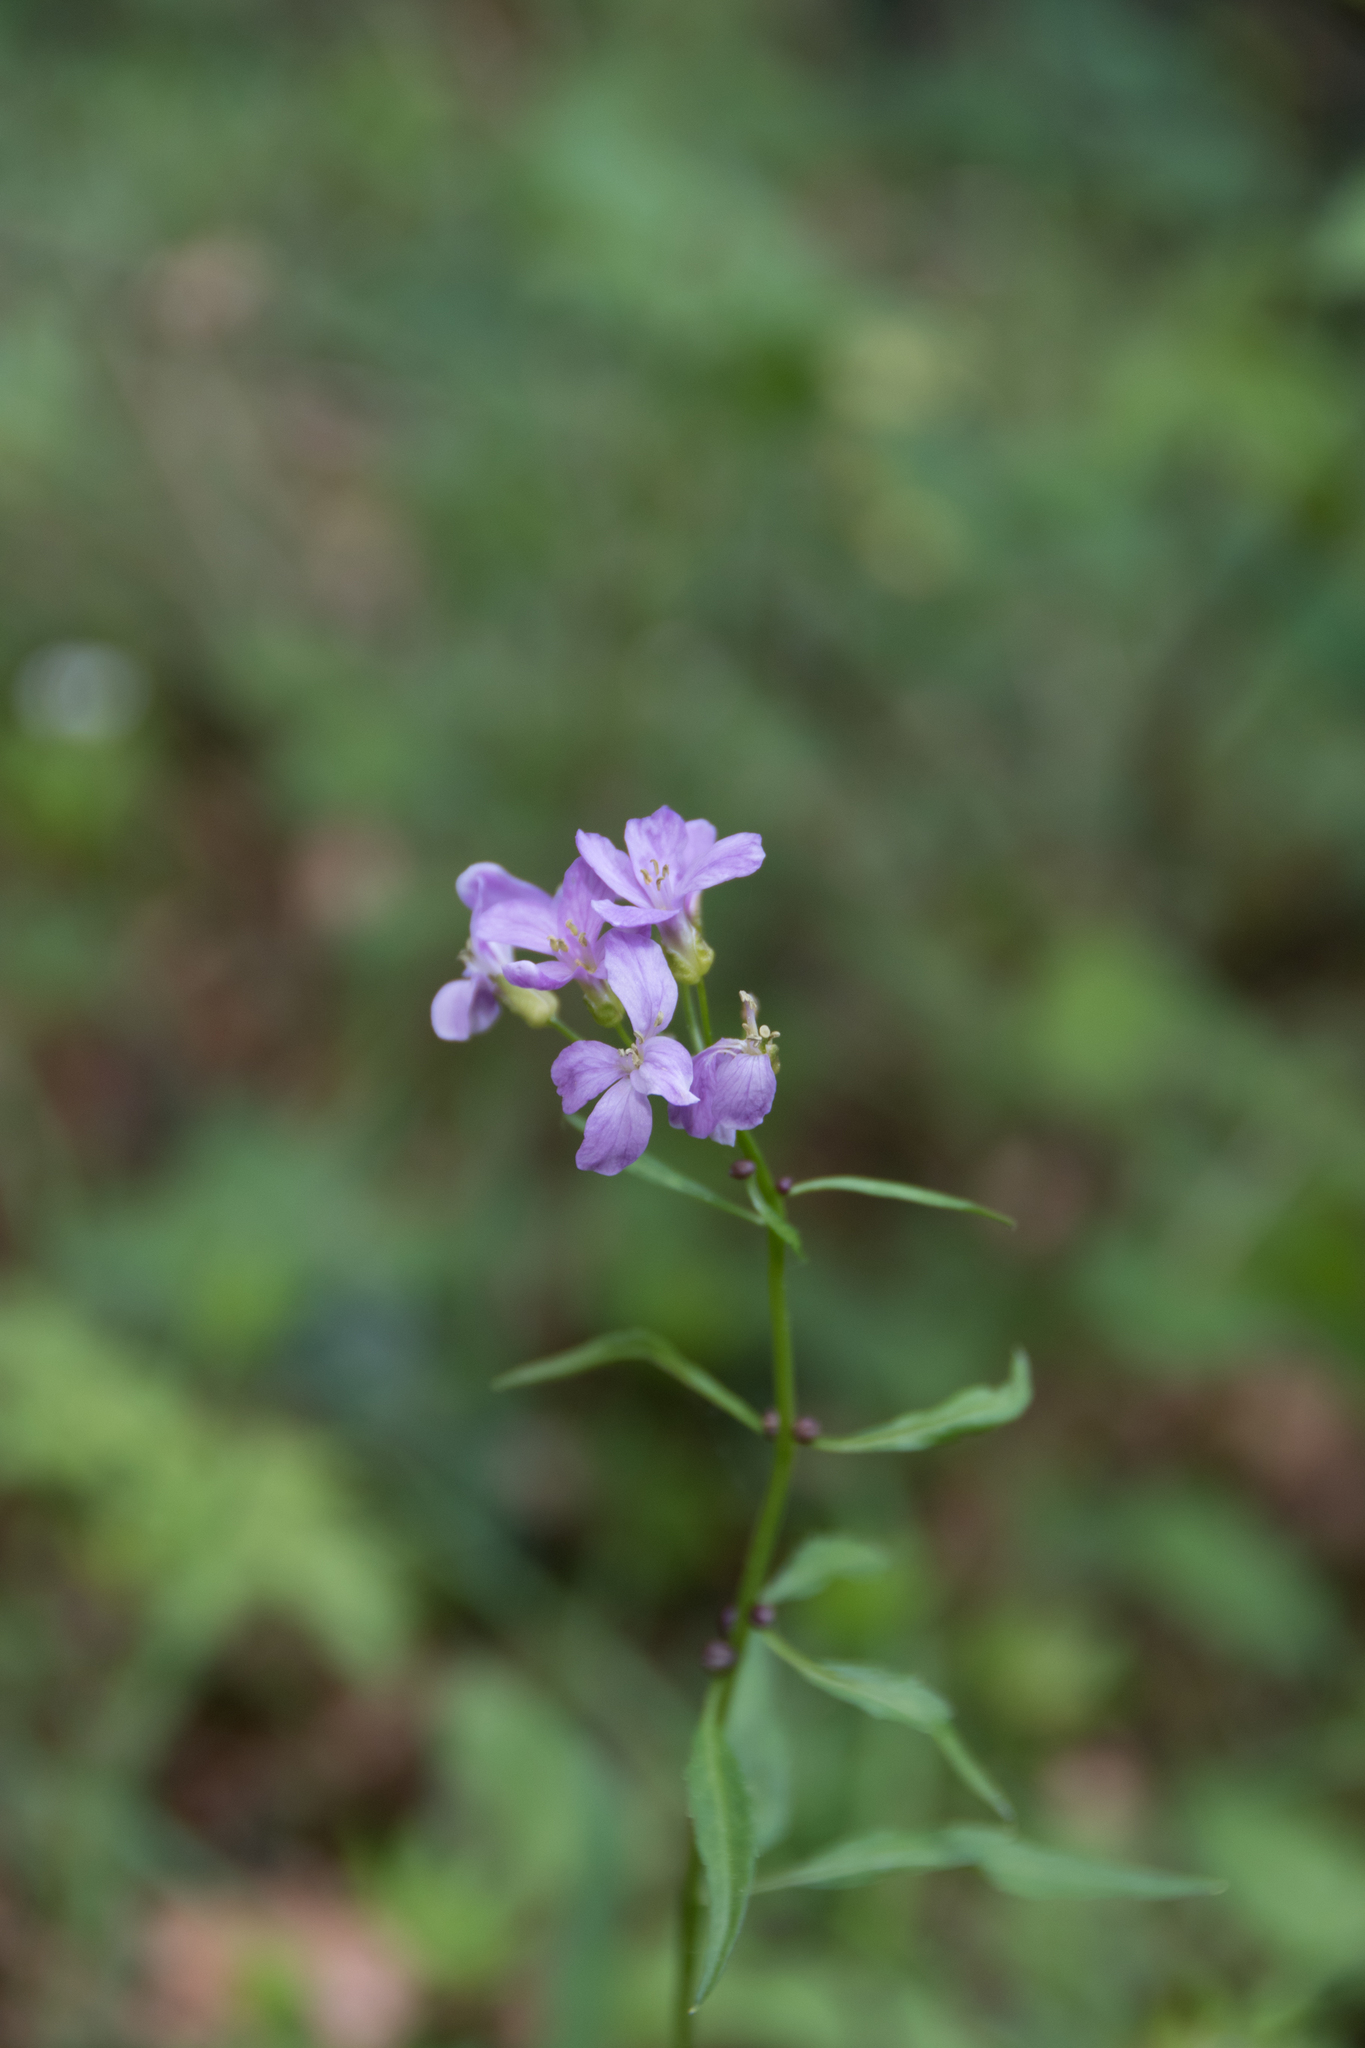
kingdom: Plantae
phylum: Tracheophyta
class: Magnoliopsida
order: Brassicales
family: Brassicaceae
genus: Cardamine
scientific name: Cardamine bulbifera
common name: Coralroot bittercress
